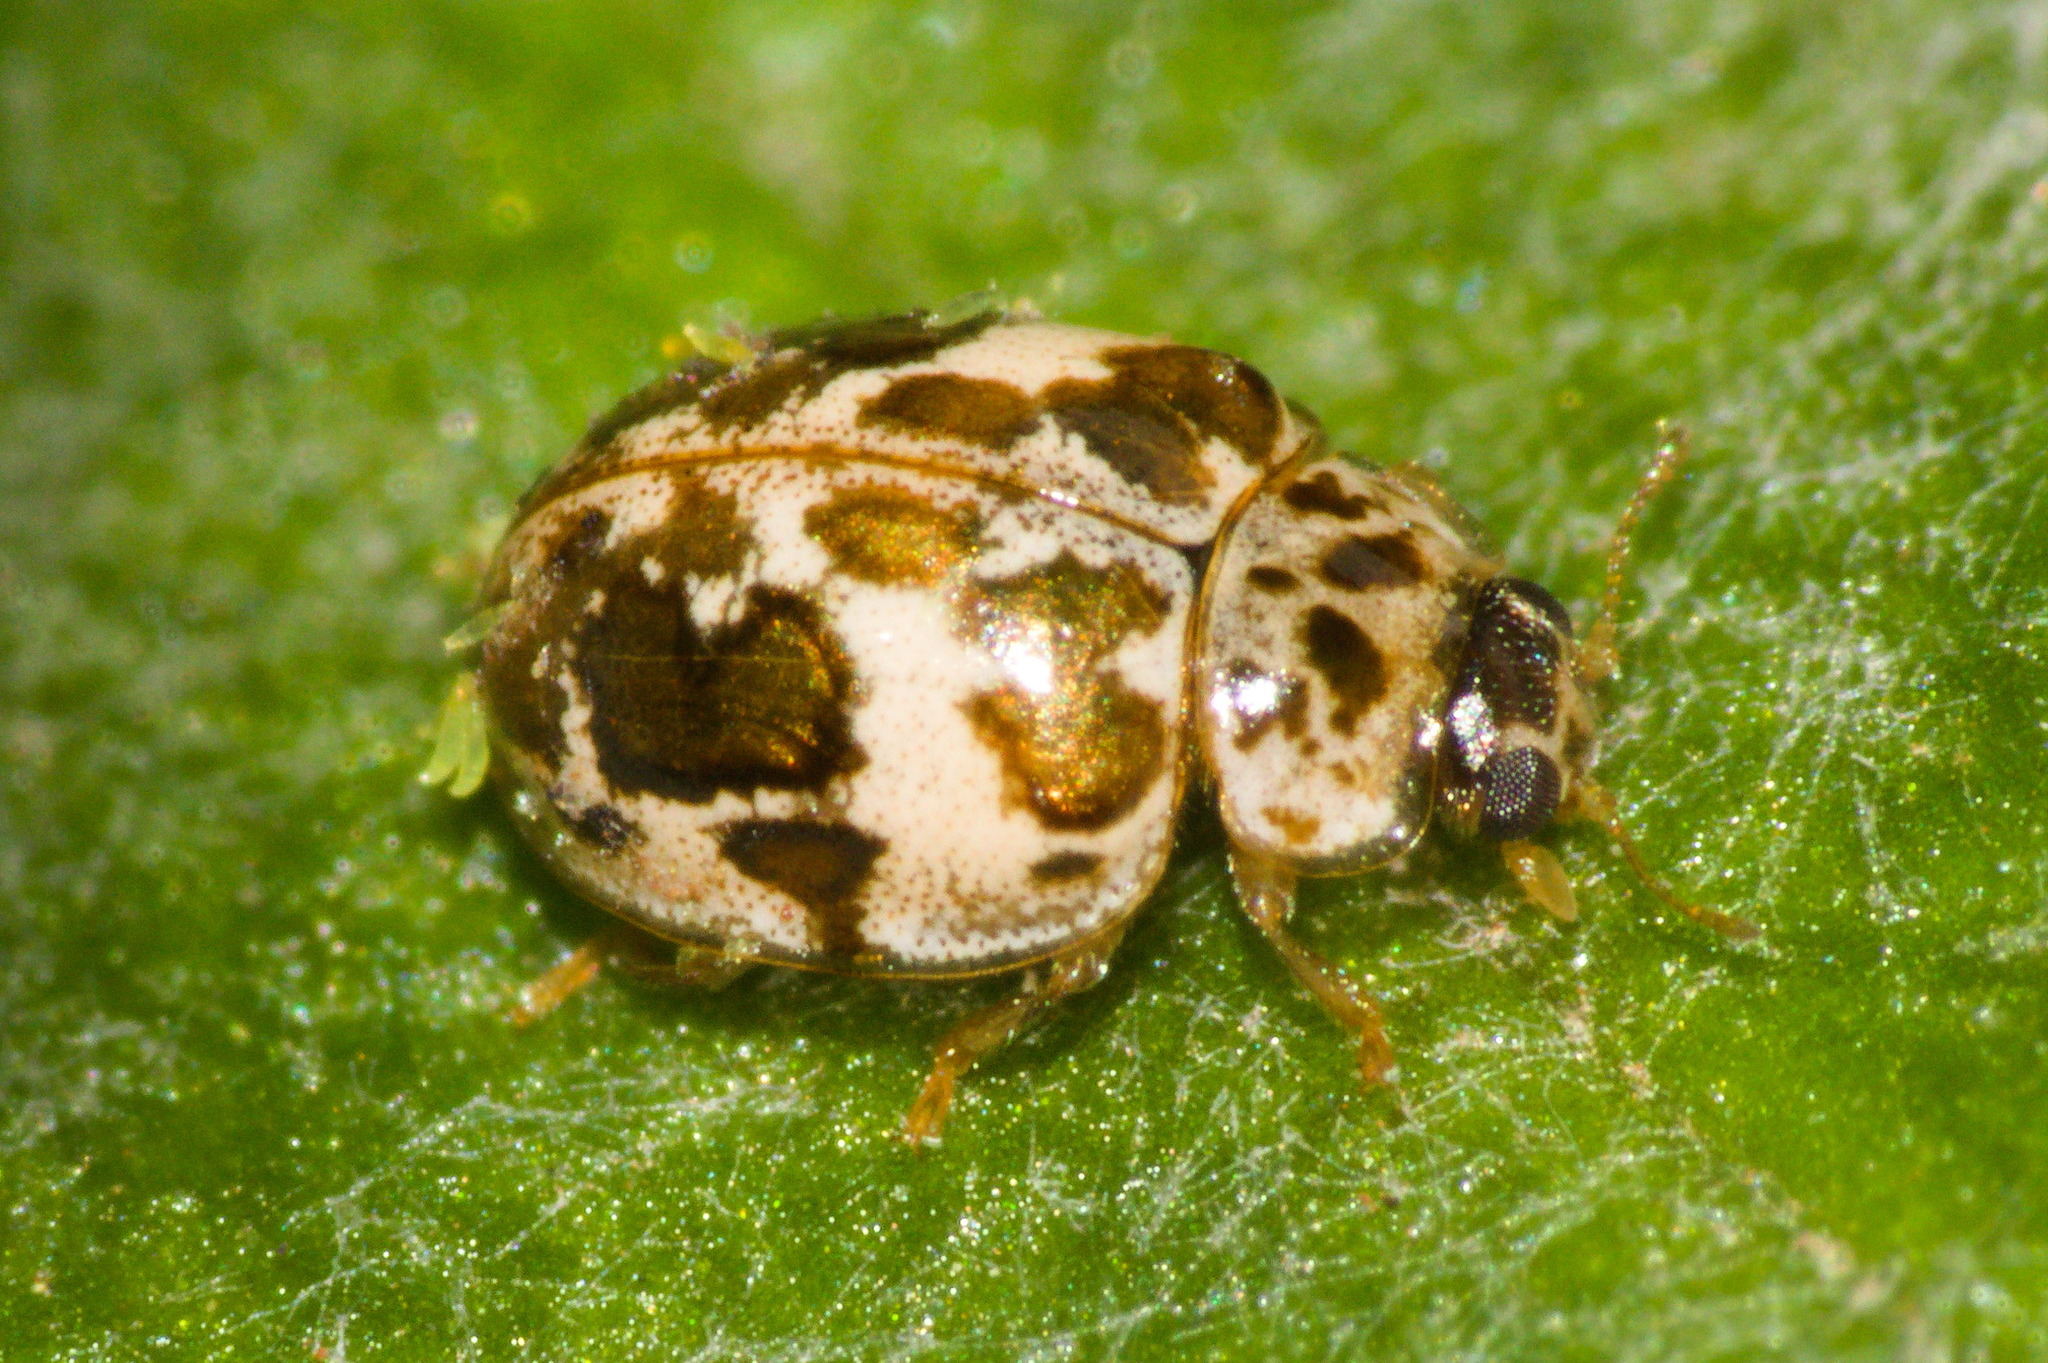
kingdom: Animalia
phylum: Arthropoda
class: Insecta
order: Coleoptera
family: Coccinellidae
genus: Psyllobora
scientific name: Psyllobora
